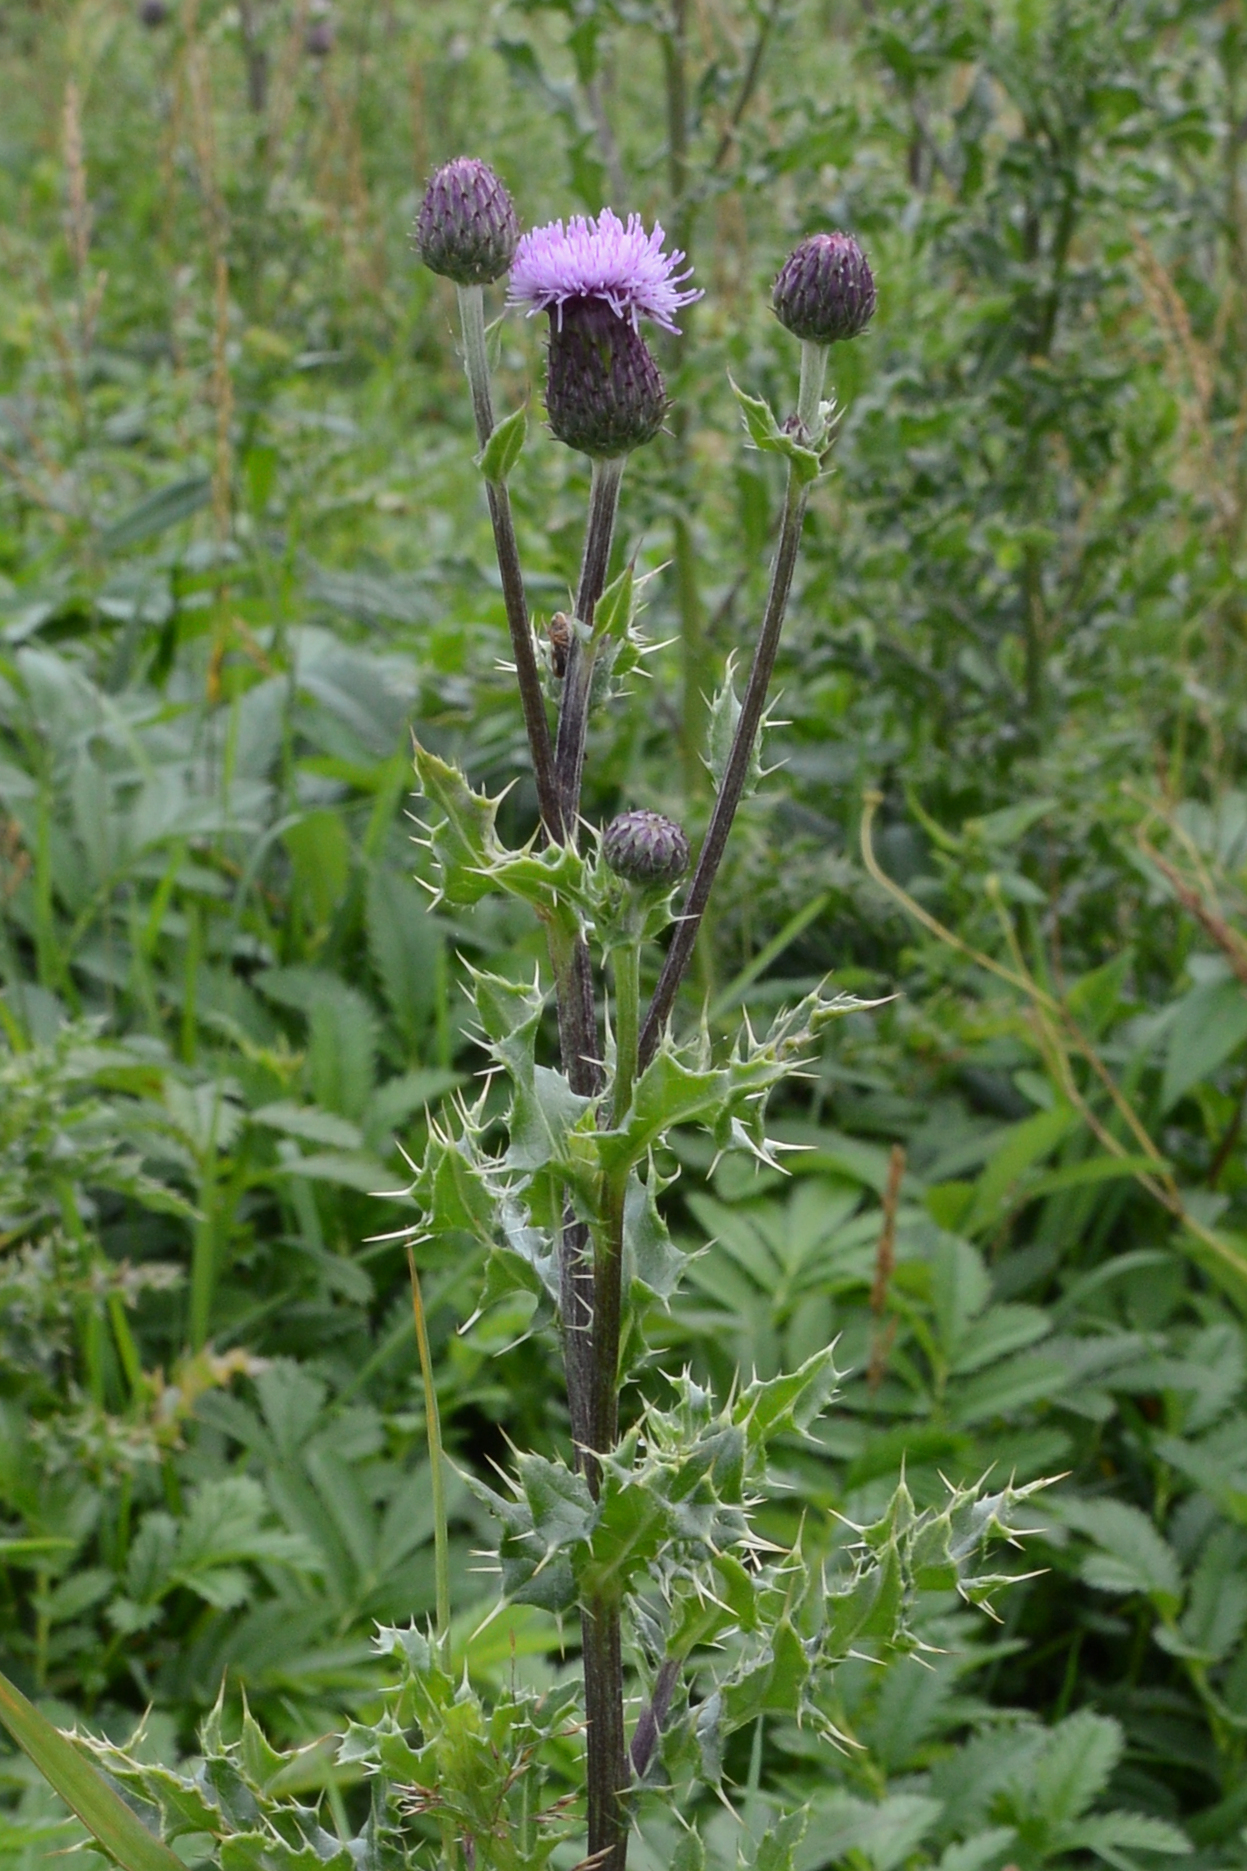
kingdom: Plantae
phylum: Tracheophyta
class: Magnoliopsida
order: Asterales
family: Asteraceae
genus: Cirsium
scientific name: Cirsium arvense
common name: Creeping thistle
